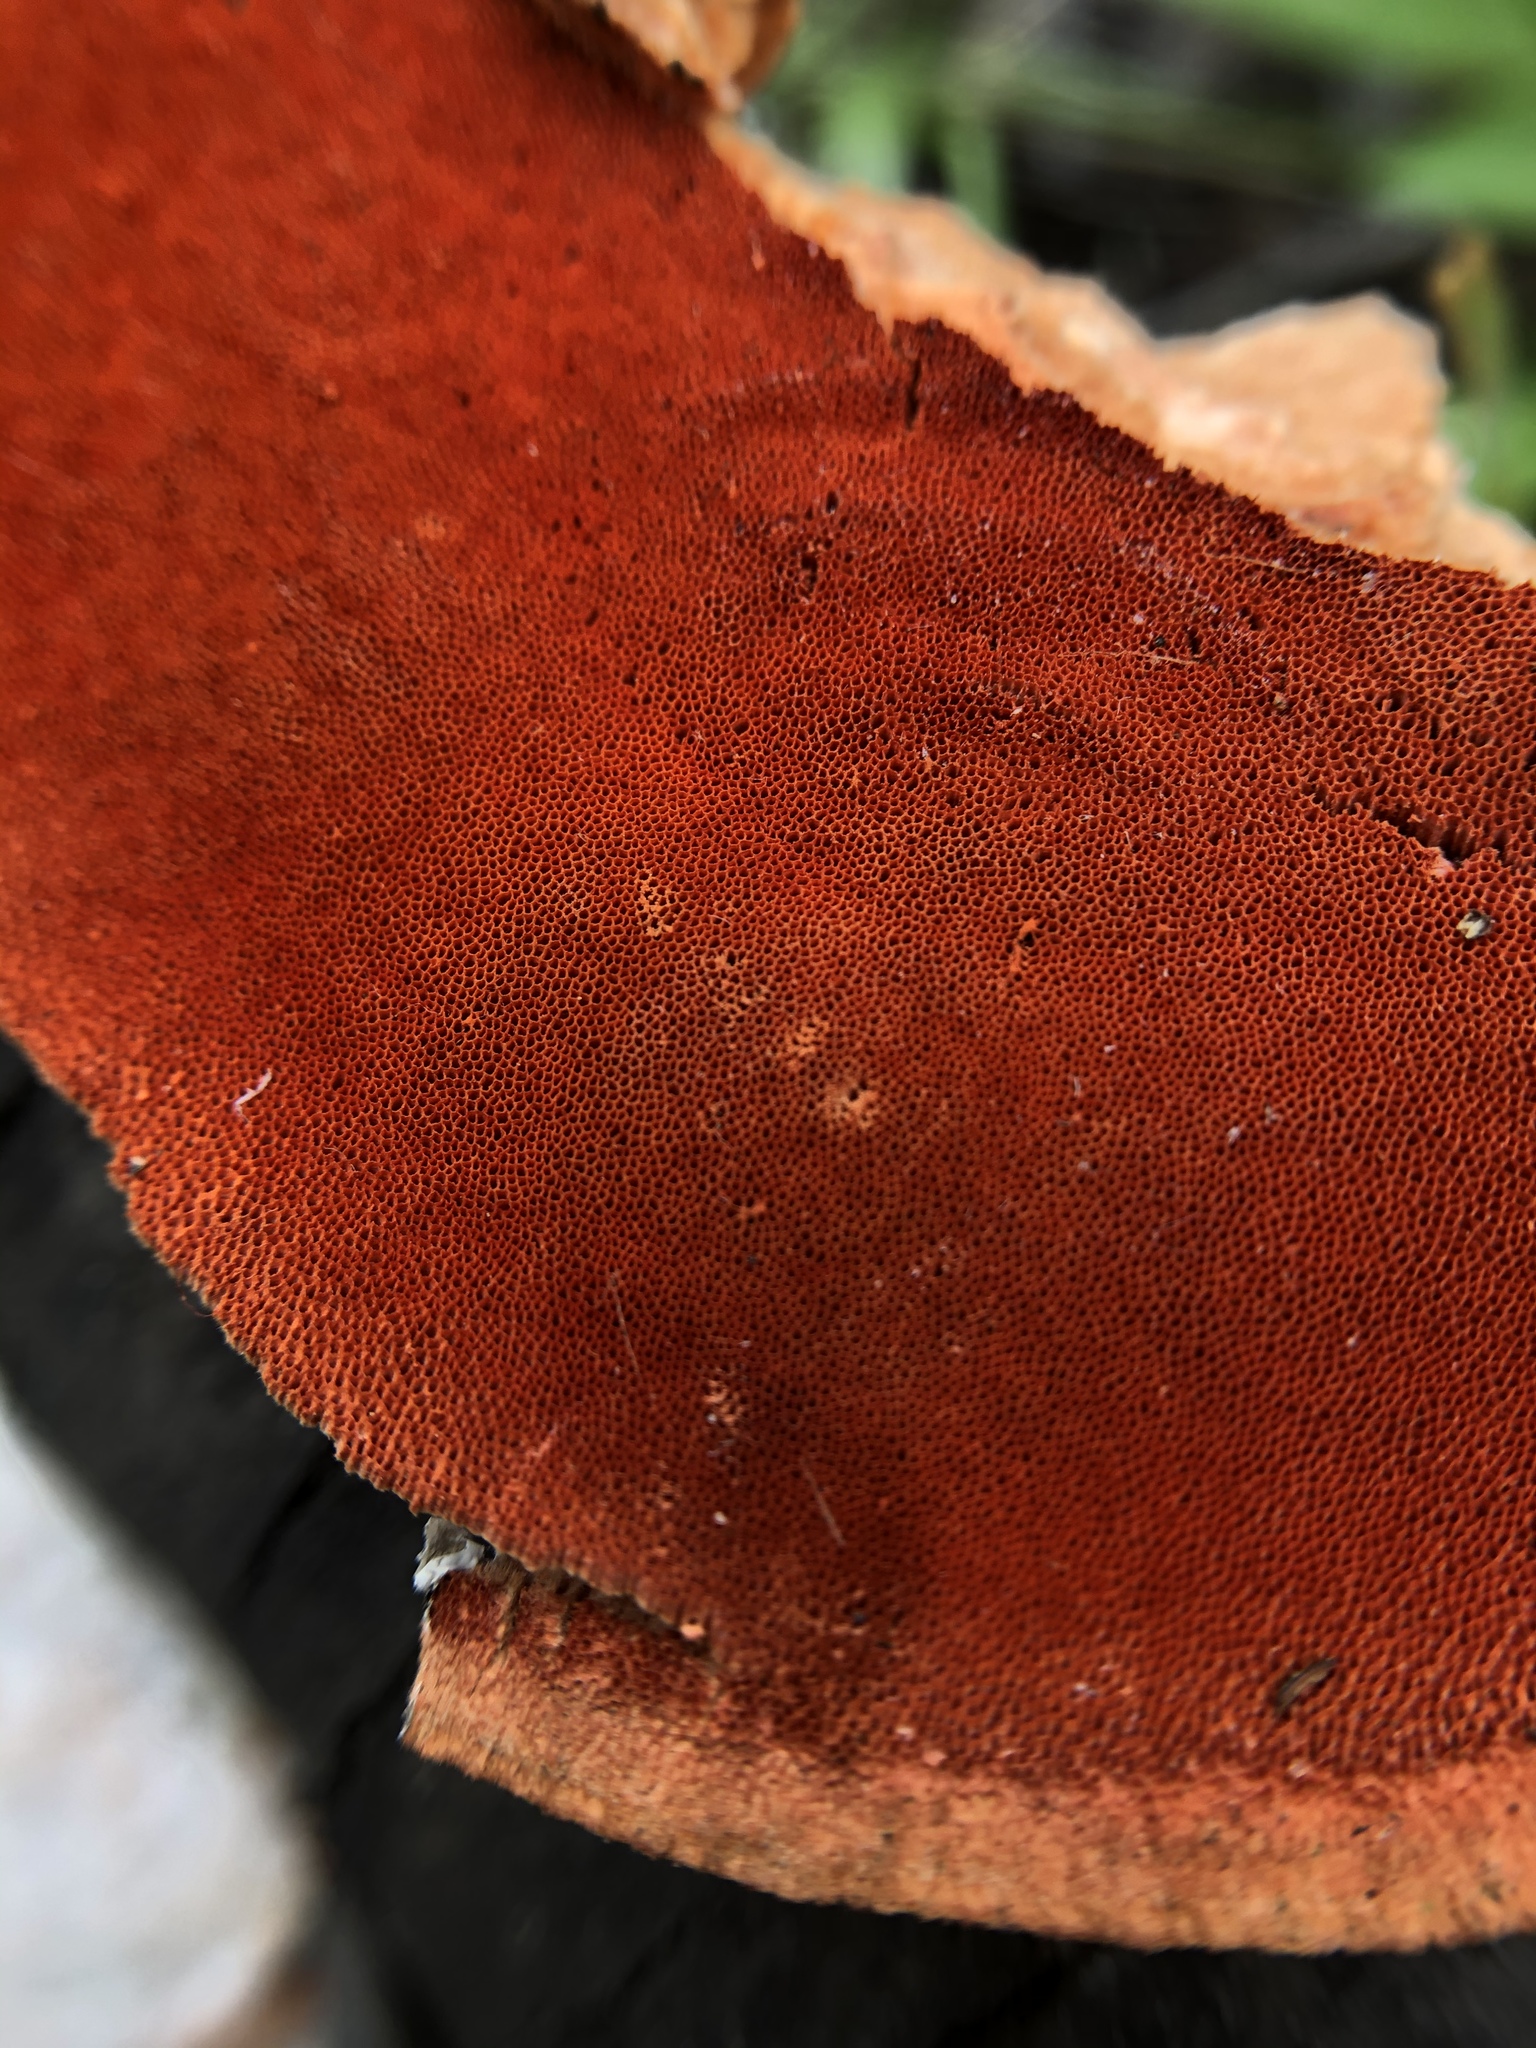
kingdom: Fungi
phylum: Basidiomycota
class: Agaricomycetes
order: Polyporales
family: Polyporaceae
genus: Trametes
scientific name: Trametes cinnabarina
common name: Northern cinnabar polypore
